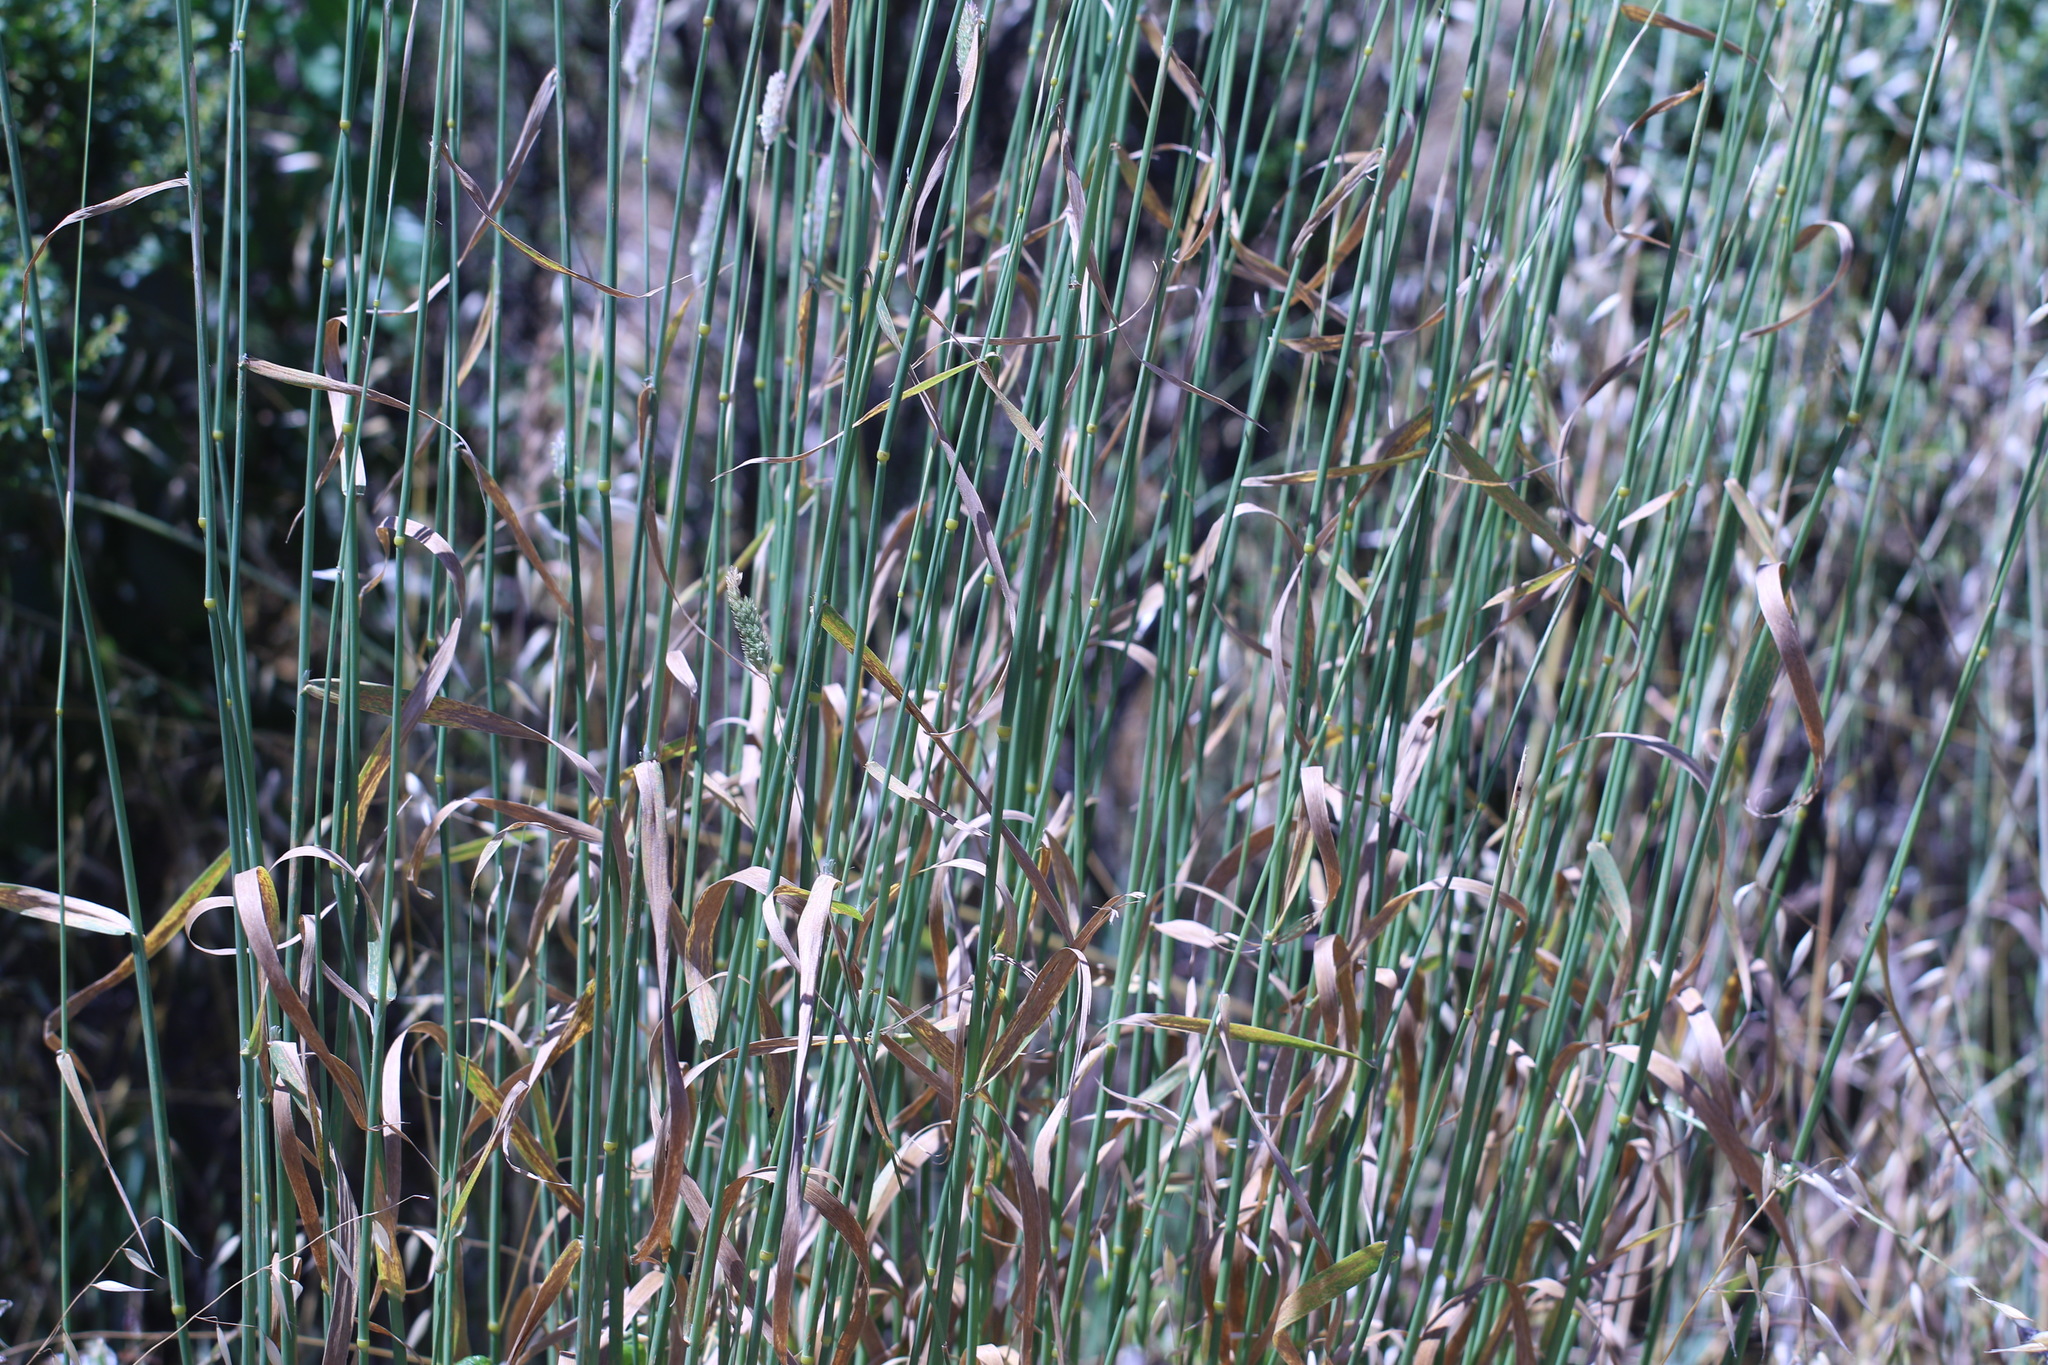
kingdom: Plantae
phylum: Tracheophyta
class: Liliopsida
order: Poales
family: Poaceae
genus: Phalaris
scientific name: Phalaris aquatica
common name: Bulbous canary-grass
